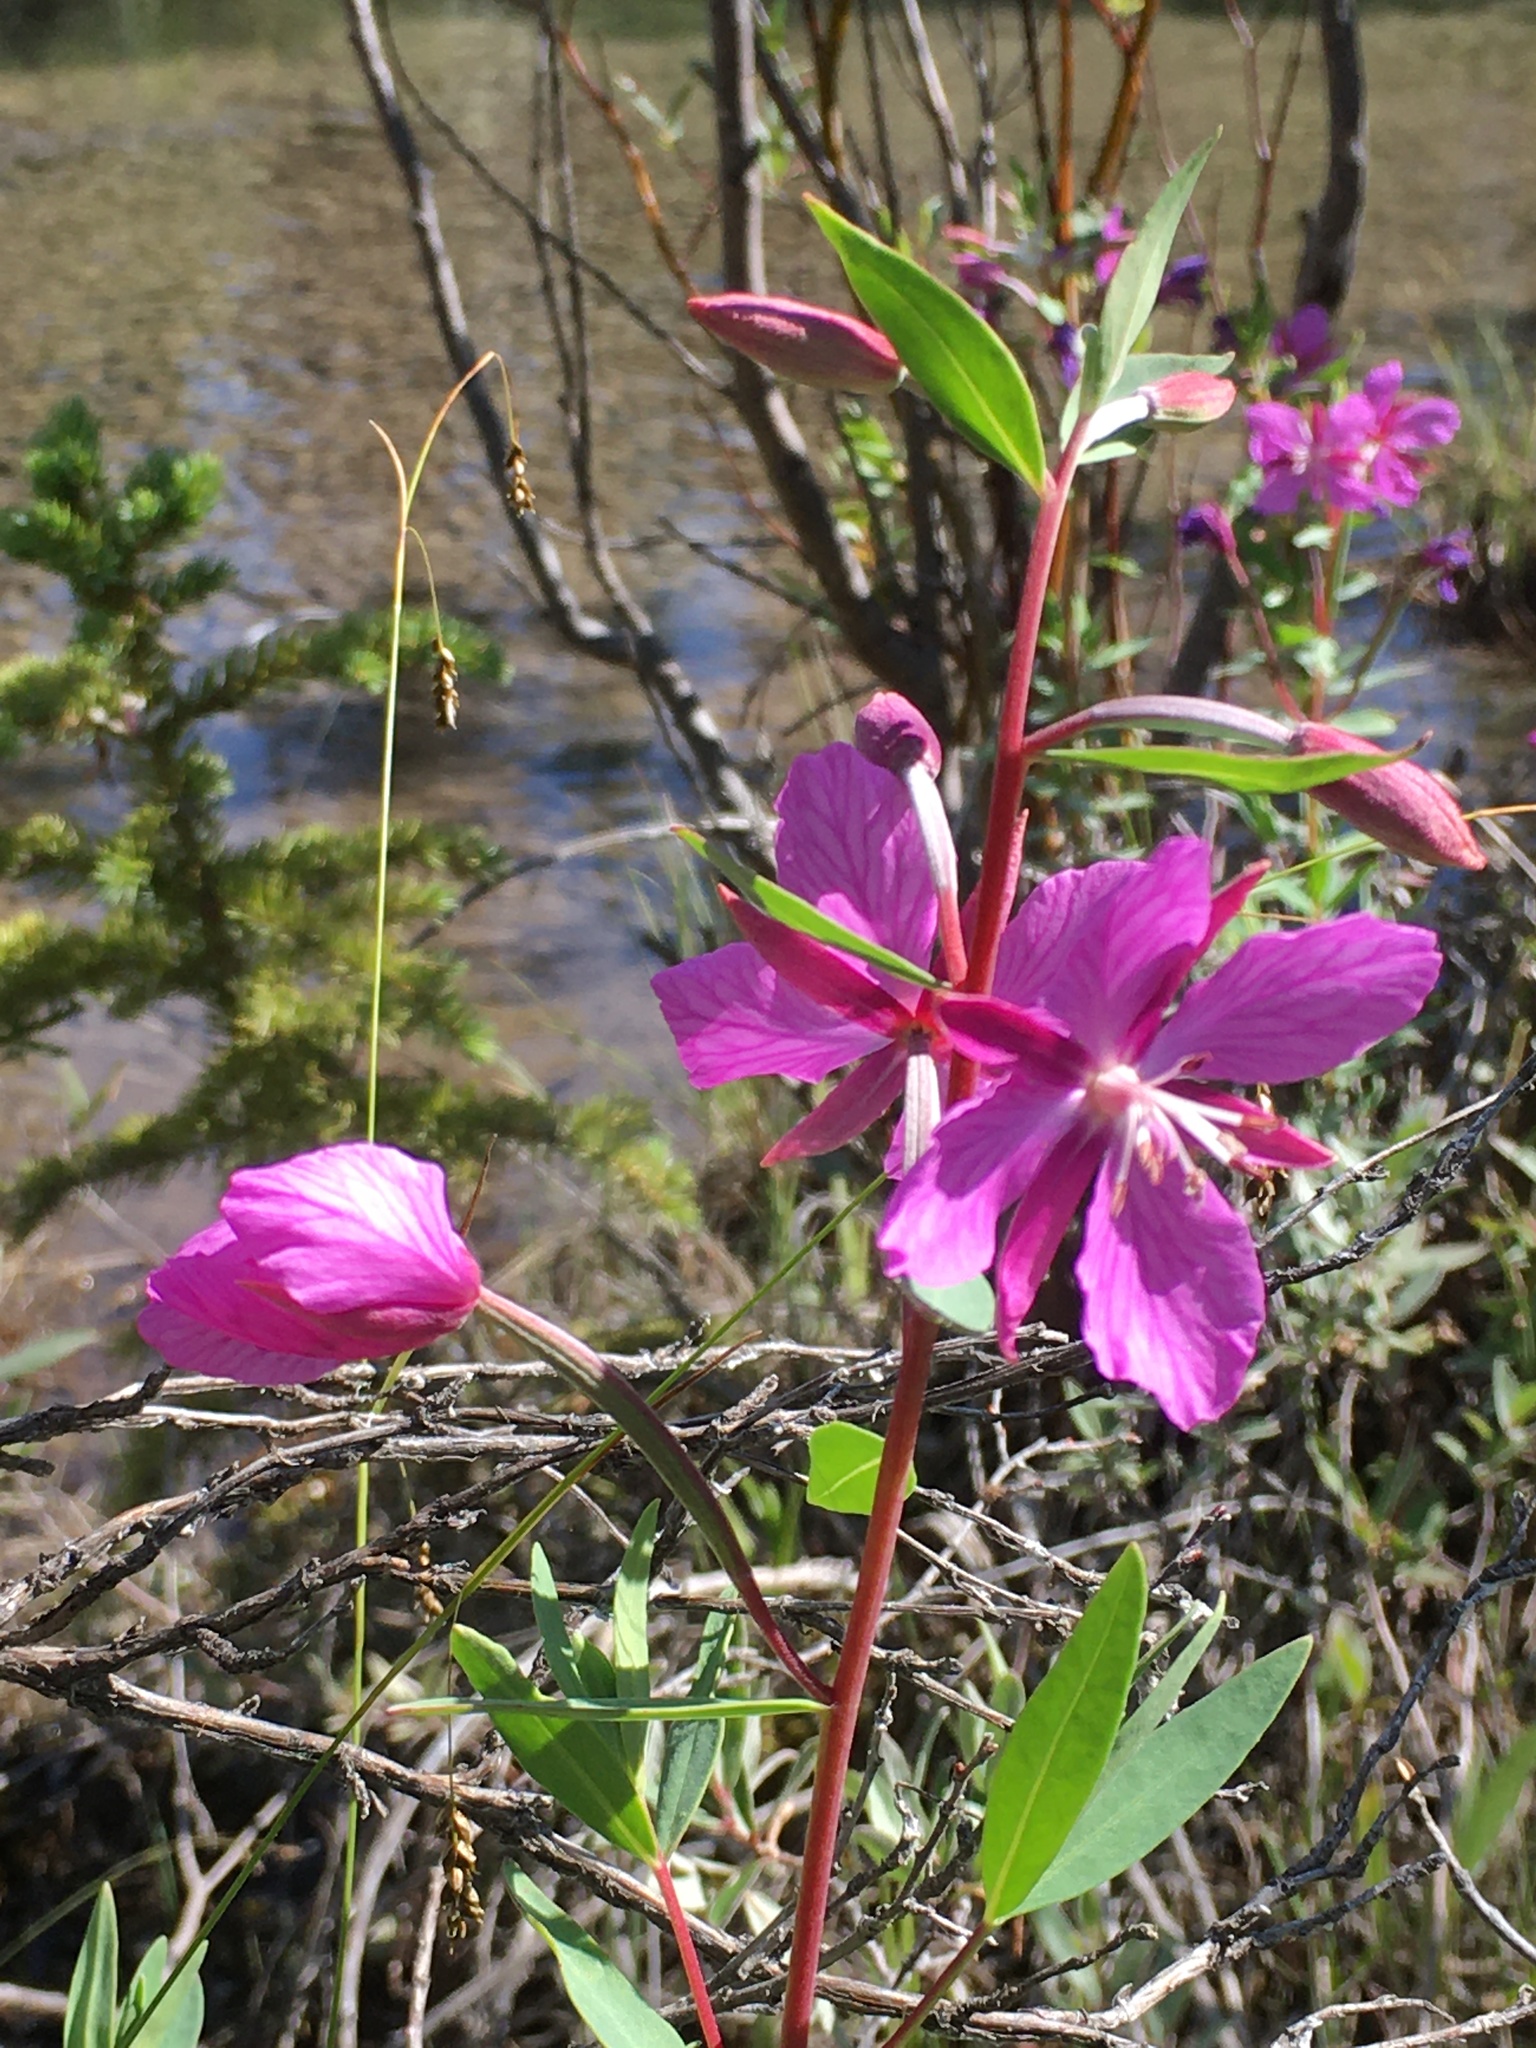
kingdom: Plantae
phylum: Tracheophyta
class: Magnoliopsida
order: Myrtales
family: Onagraceae
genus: Chamaenerion
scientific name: Chamaenerion latifolium
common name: Dwarf fireweed
